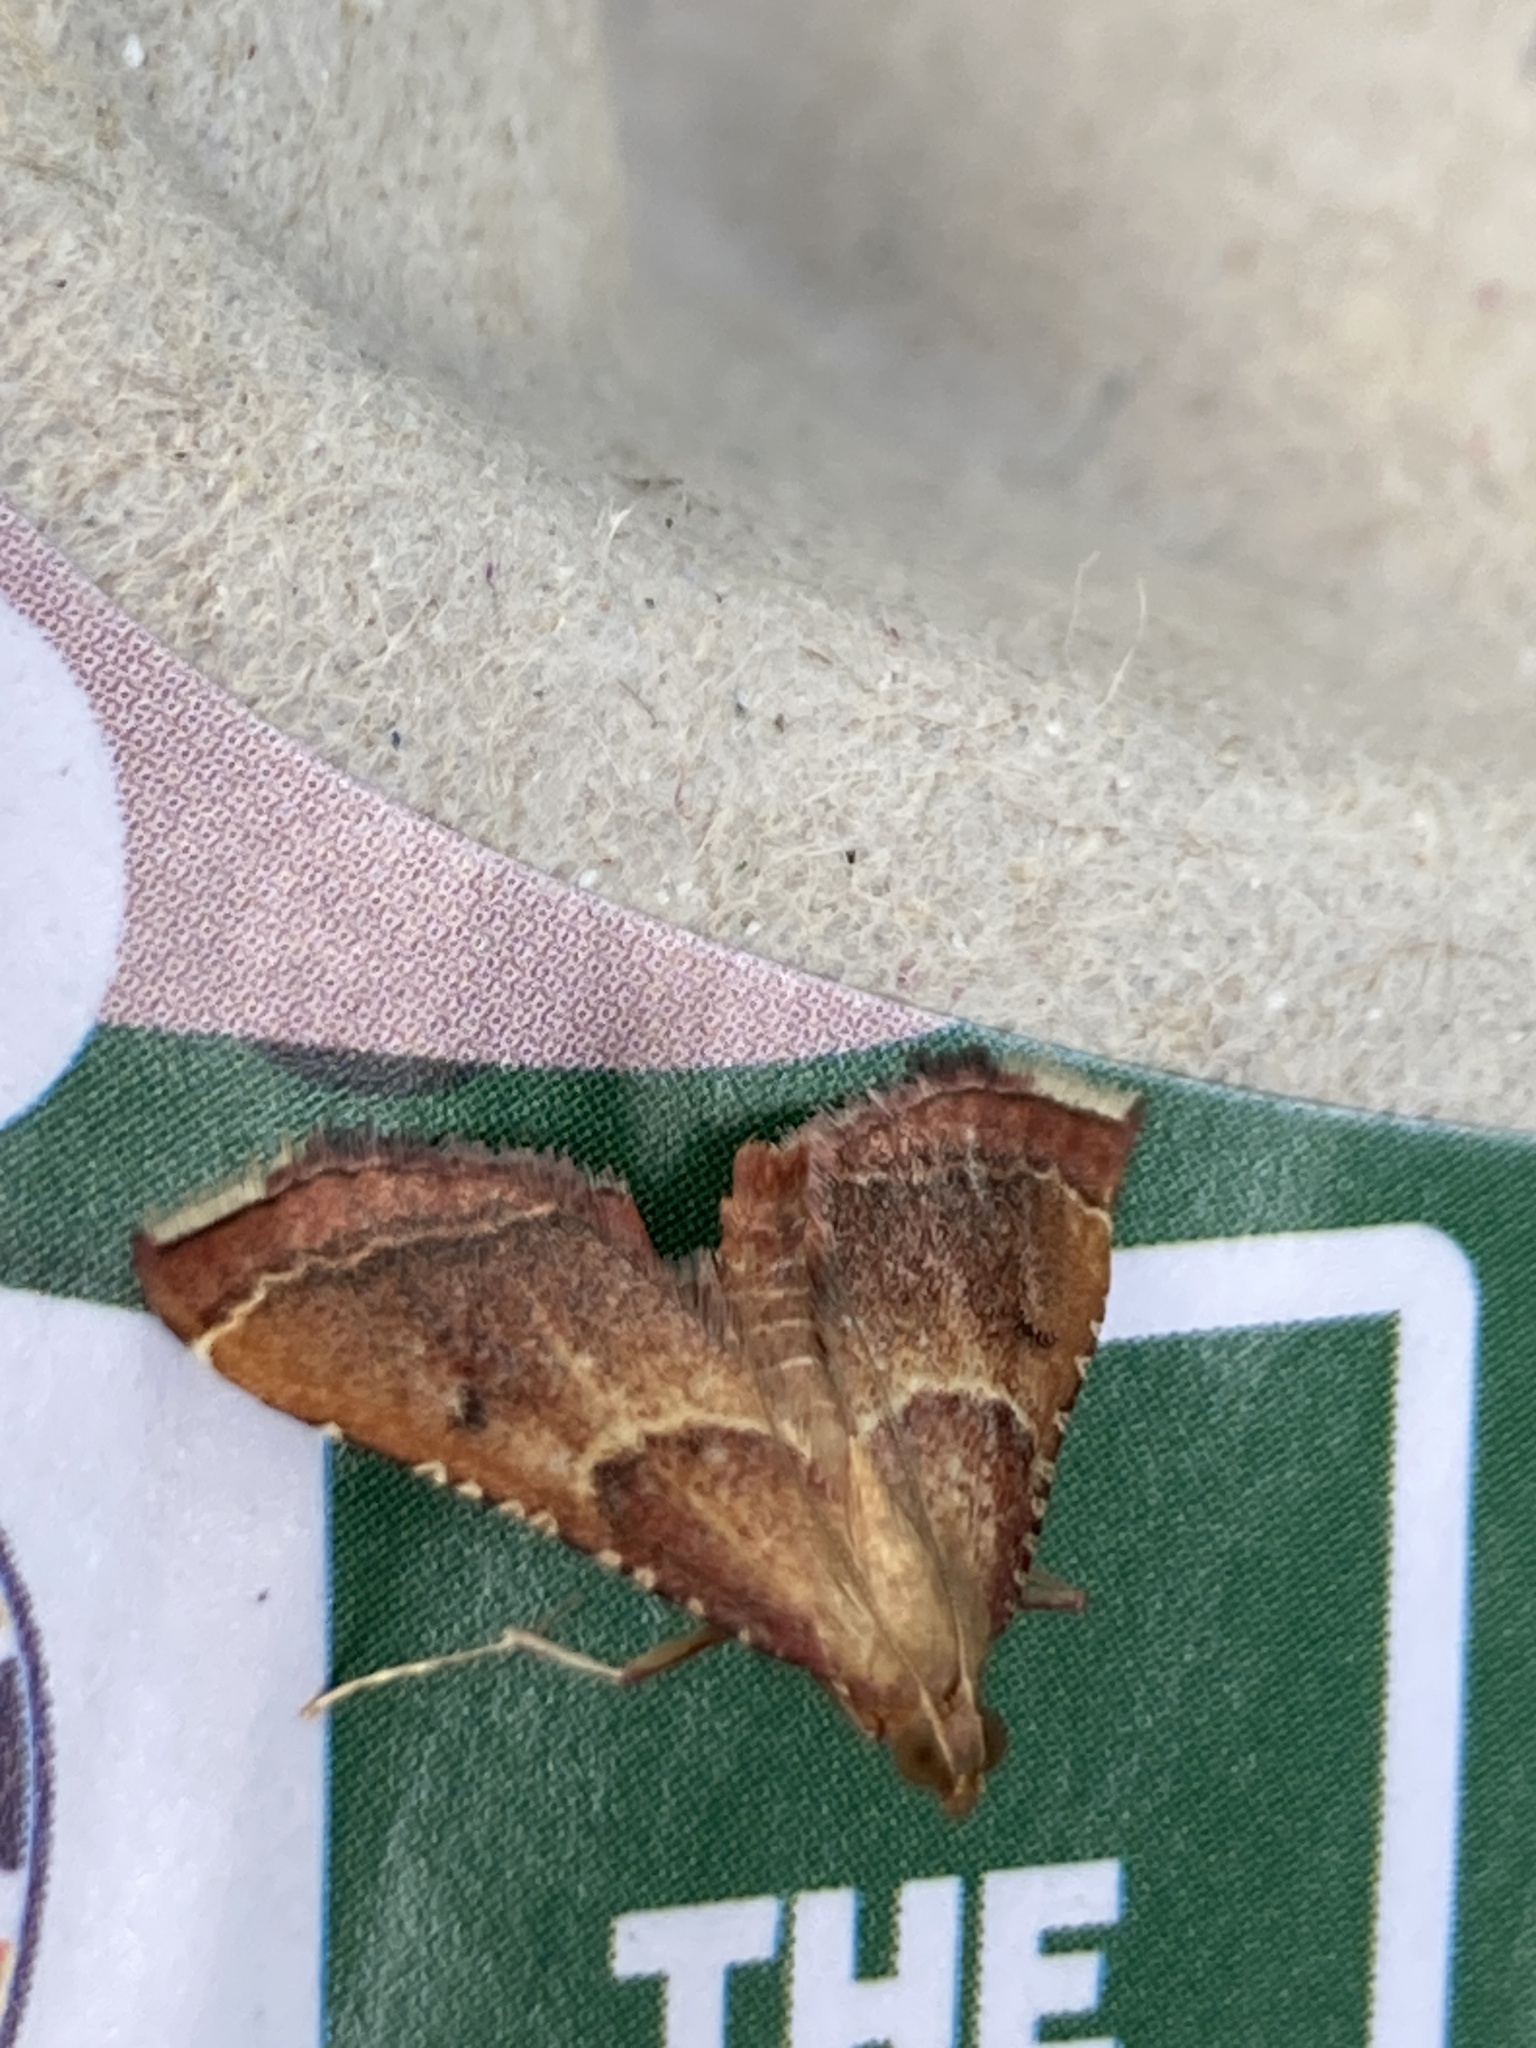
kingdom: Animalia
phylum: Arthropoda
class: Insecta
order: Lepidoptera
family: Pyralidae
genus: Endotricha
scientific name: Endotricha flammealis
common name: Rosy tabby
